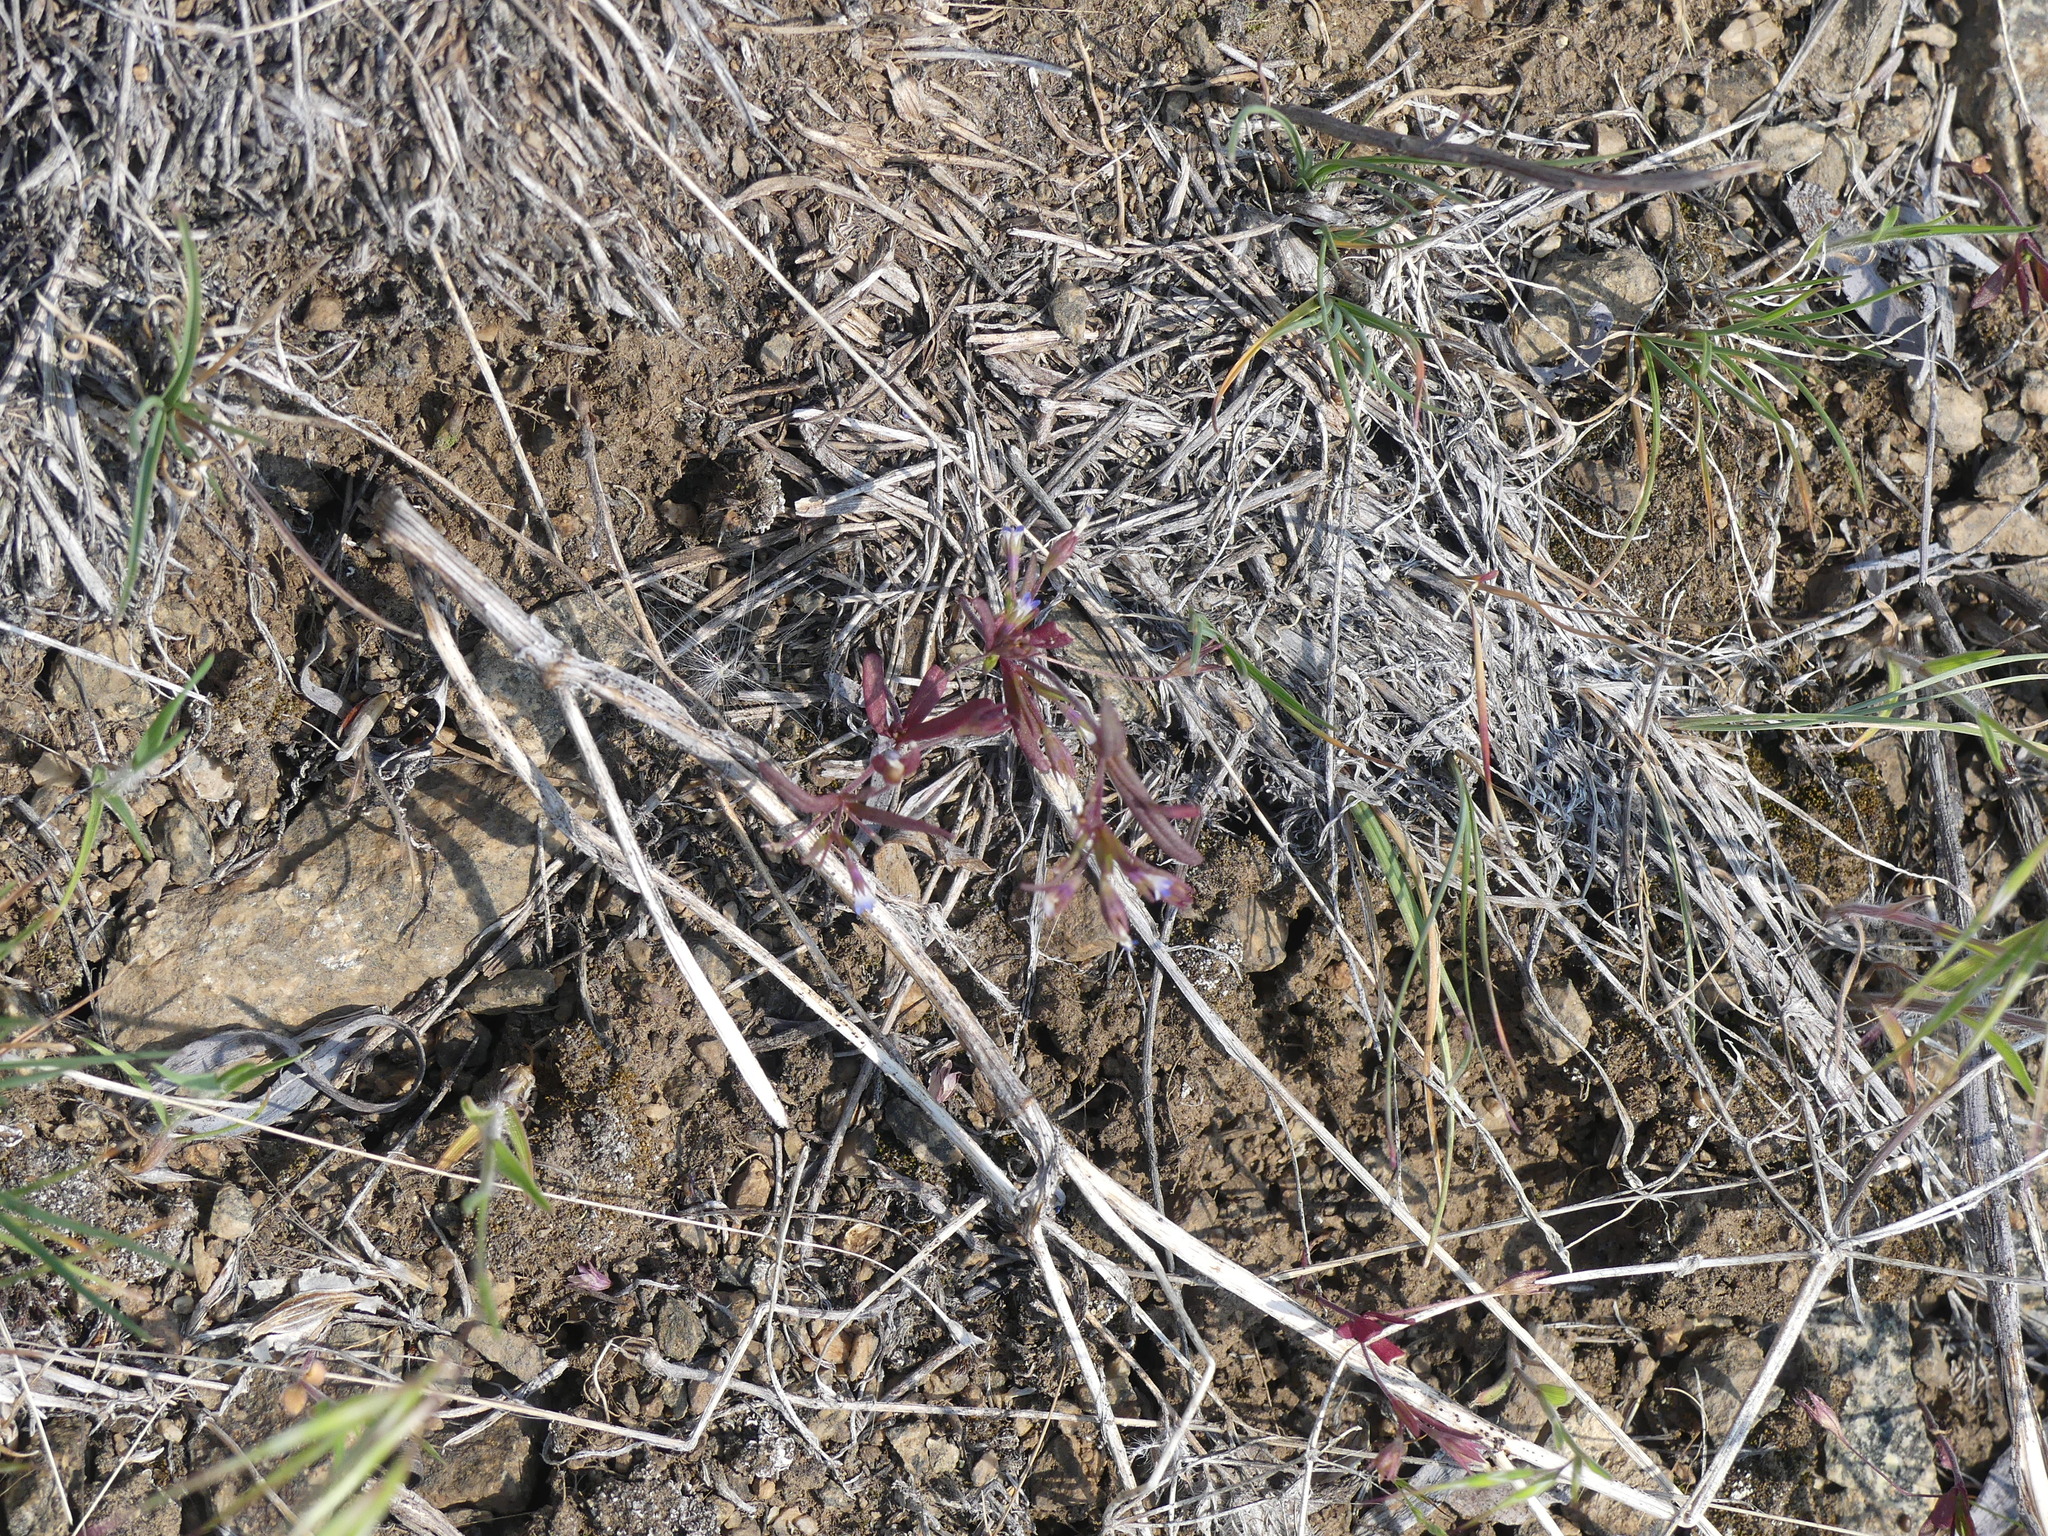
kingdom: Plantae
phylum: Tracheophyta
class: Magnoliopsida
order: Lamiales
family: Plantaginaceae
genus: Collinsia
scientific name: Collinsia parviflora
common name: Blue-lips
